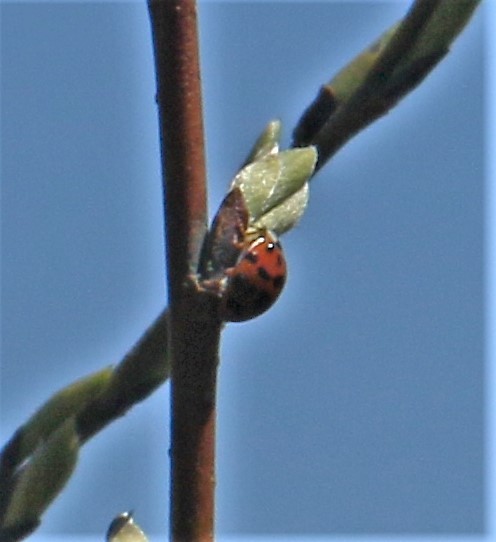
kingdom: Animalia
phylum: Arthropoda
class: Insecta
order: Coleoptera
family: Coccinellidae
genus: Harmonia
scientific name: Harmonia axyridis
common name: Harlequin ladybird
